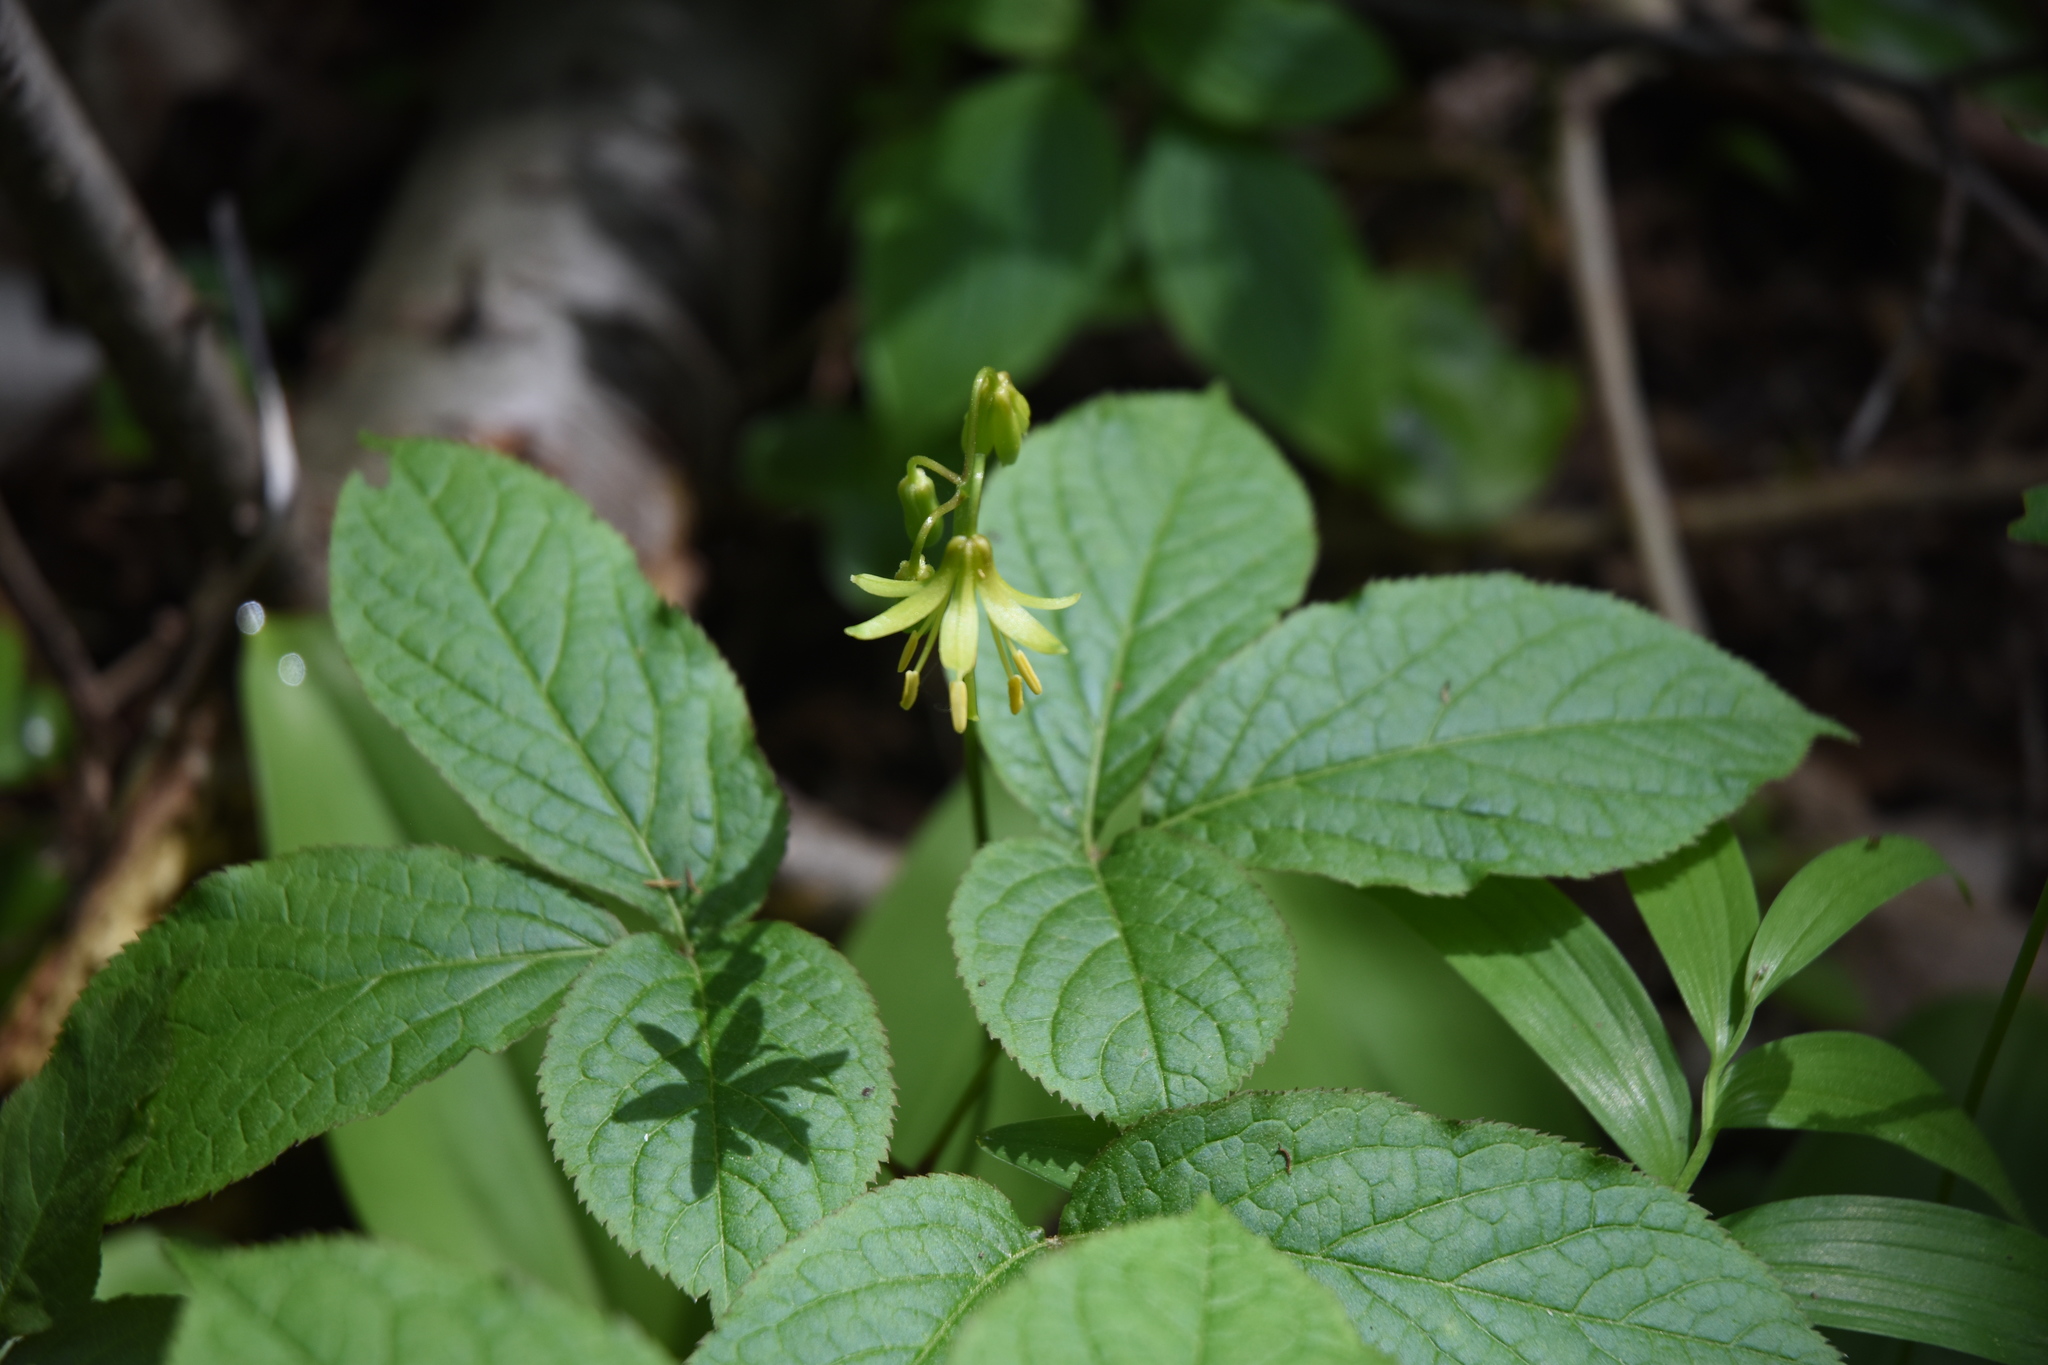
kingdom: Plantae
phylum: Tracheophyta
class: Liliopsida
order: Liliales
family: Liliaceae
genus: Clintonia
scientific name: Clintonia borealis
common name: Yellow clintonia
